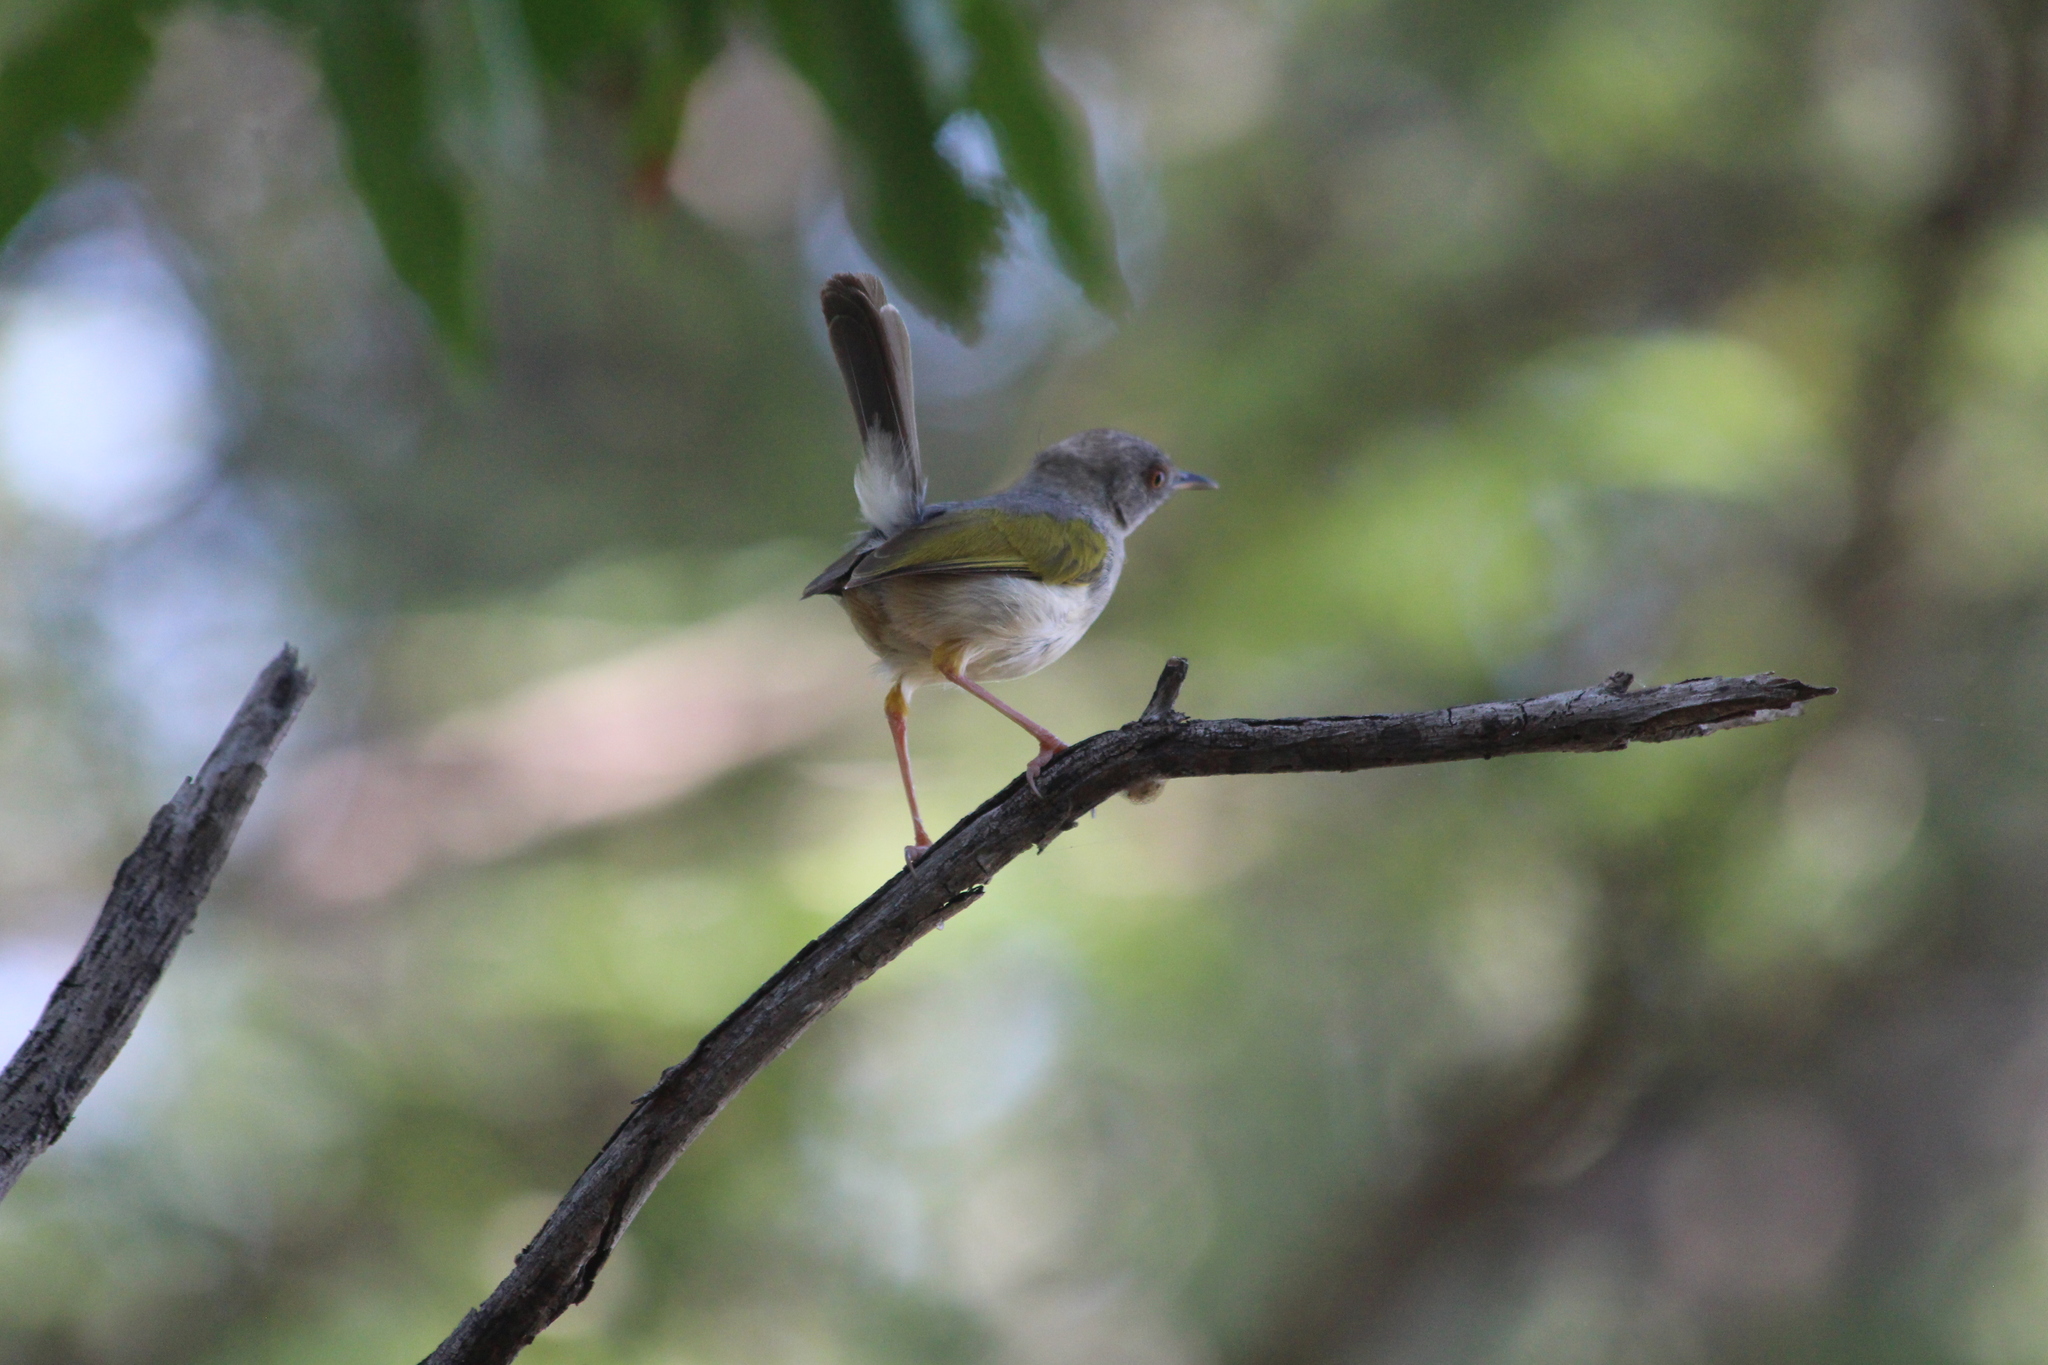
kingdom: Animalia
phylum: Chordata
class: Aves
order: Passeriformes
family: Cisticolidae
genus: Camaroptera
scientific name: Camaroptera brachyura
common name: Green-backed camaroptera
